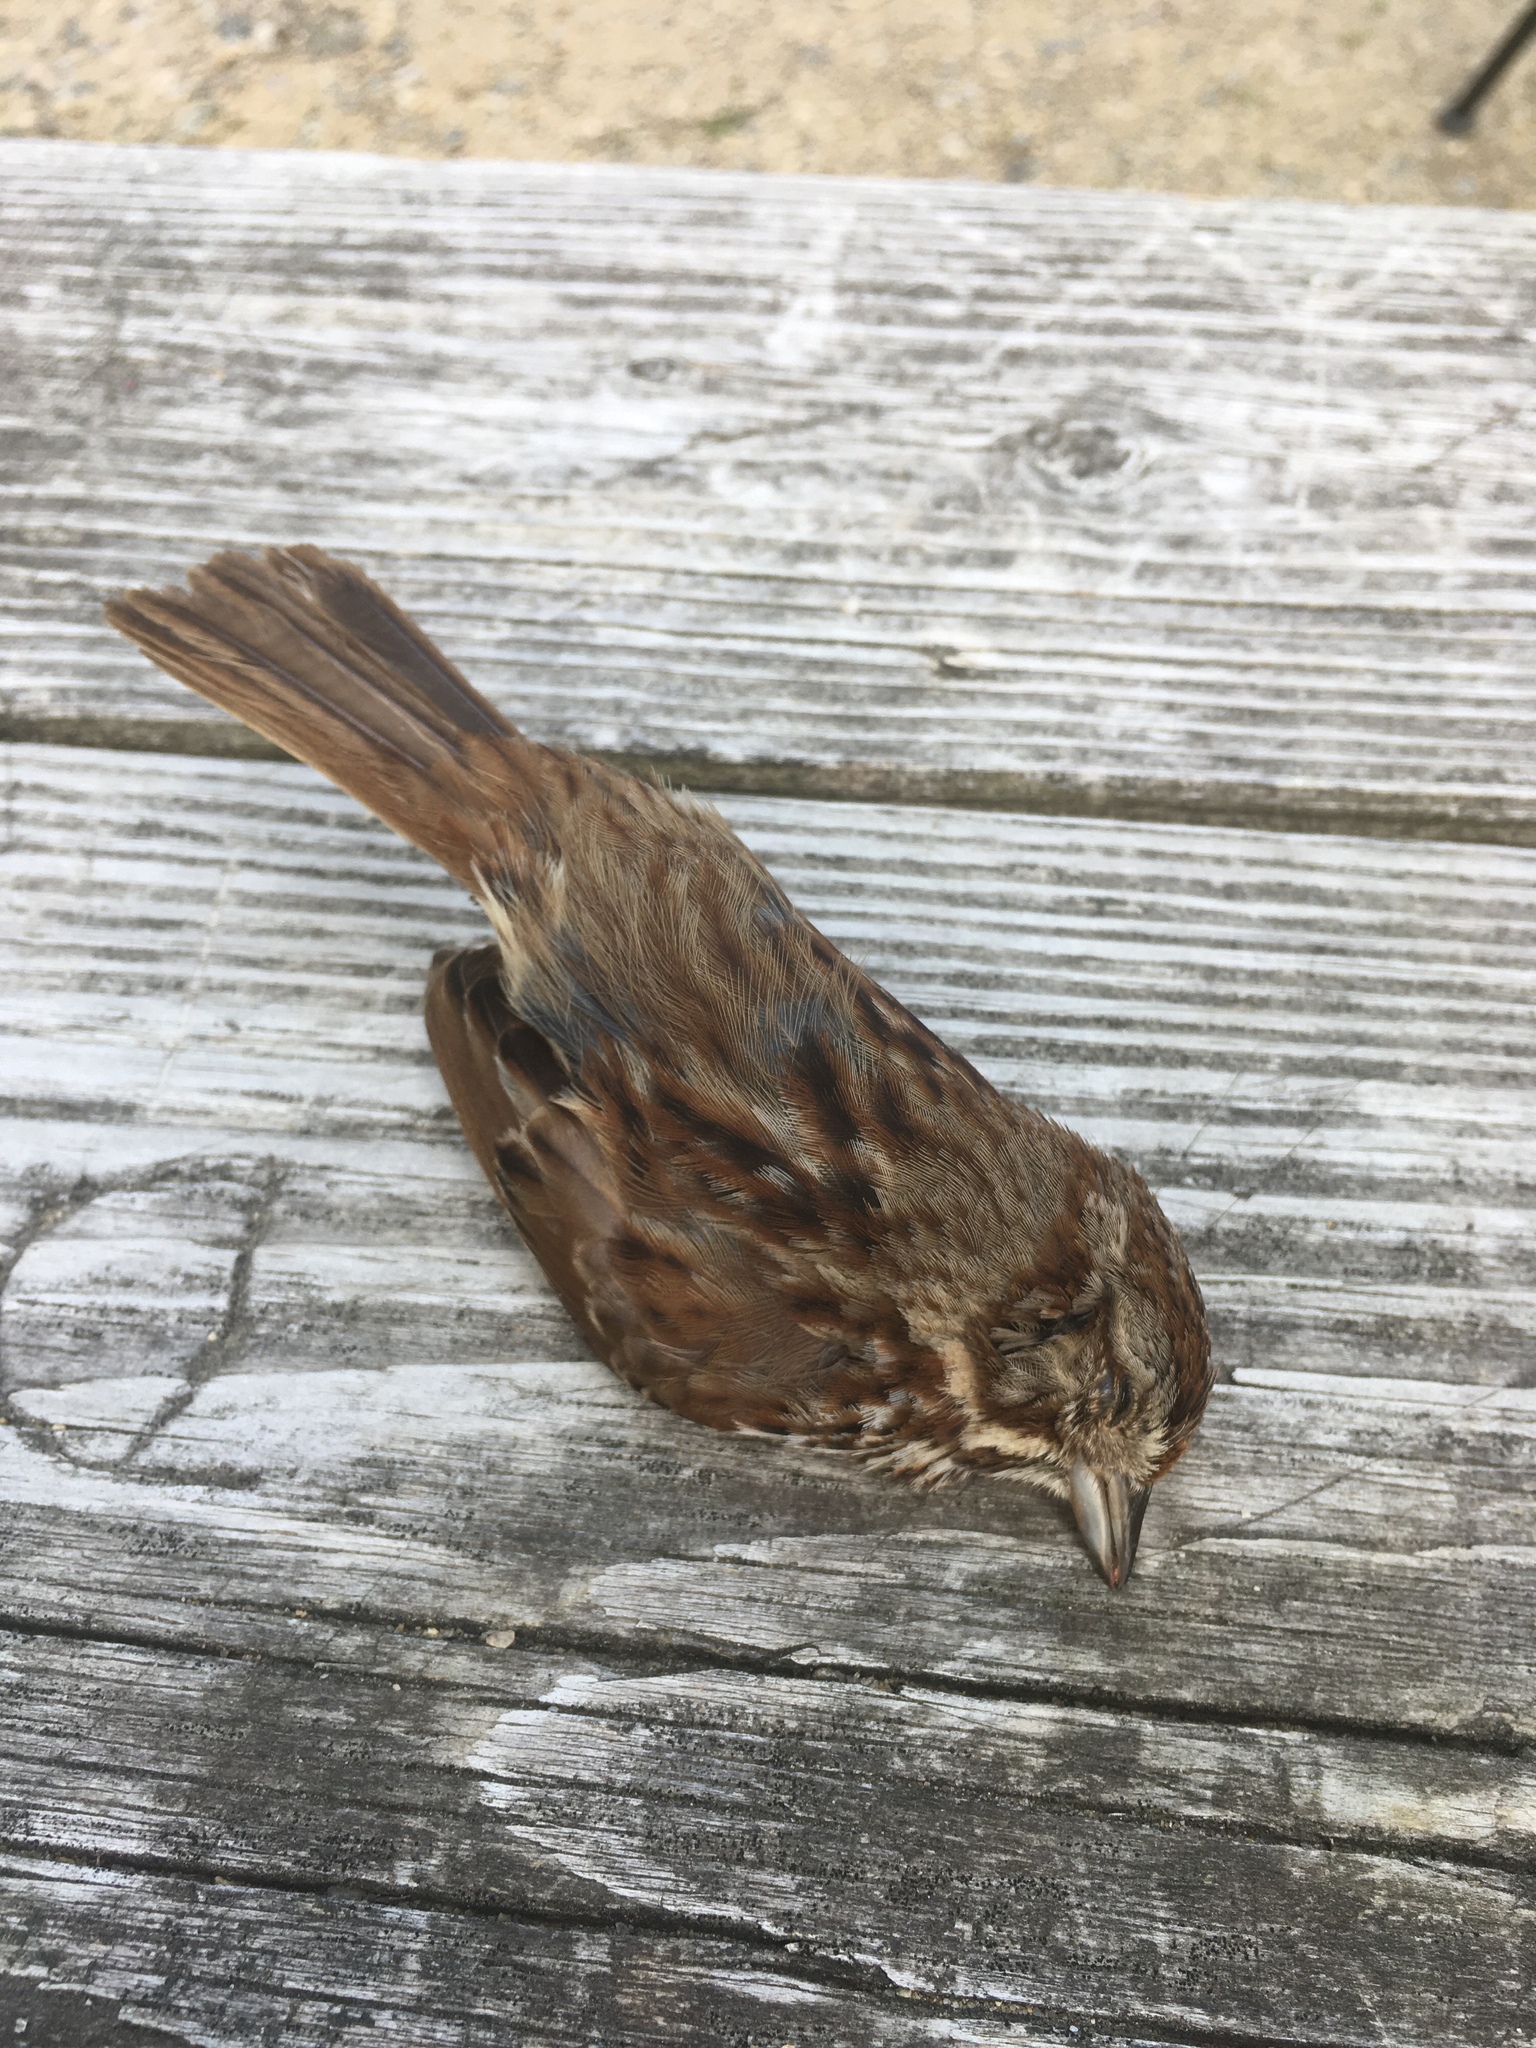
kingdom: Animalia
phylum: Chordata
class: Aves
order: Passeriformes
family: Passerellidae
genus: Melospiza
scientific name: Melospiza melodia
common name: Song sparrow
